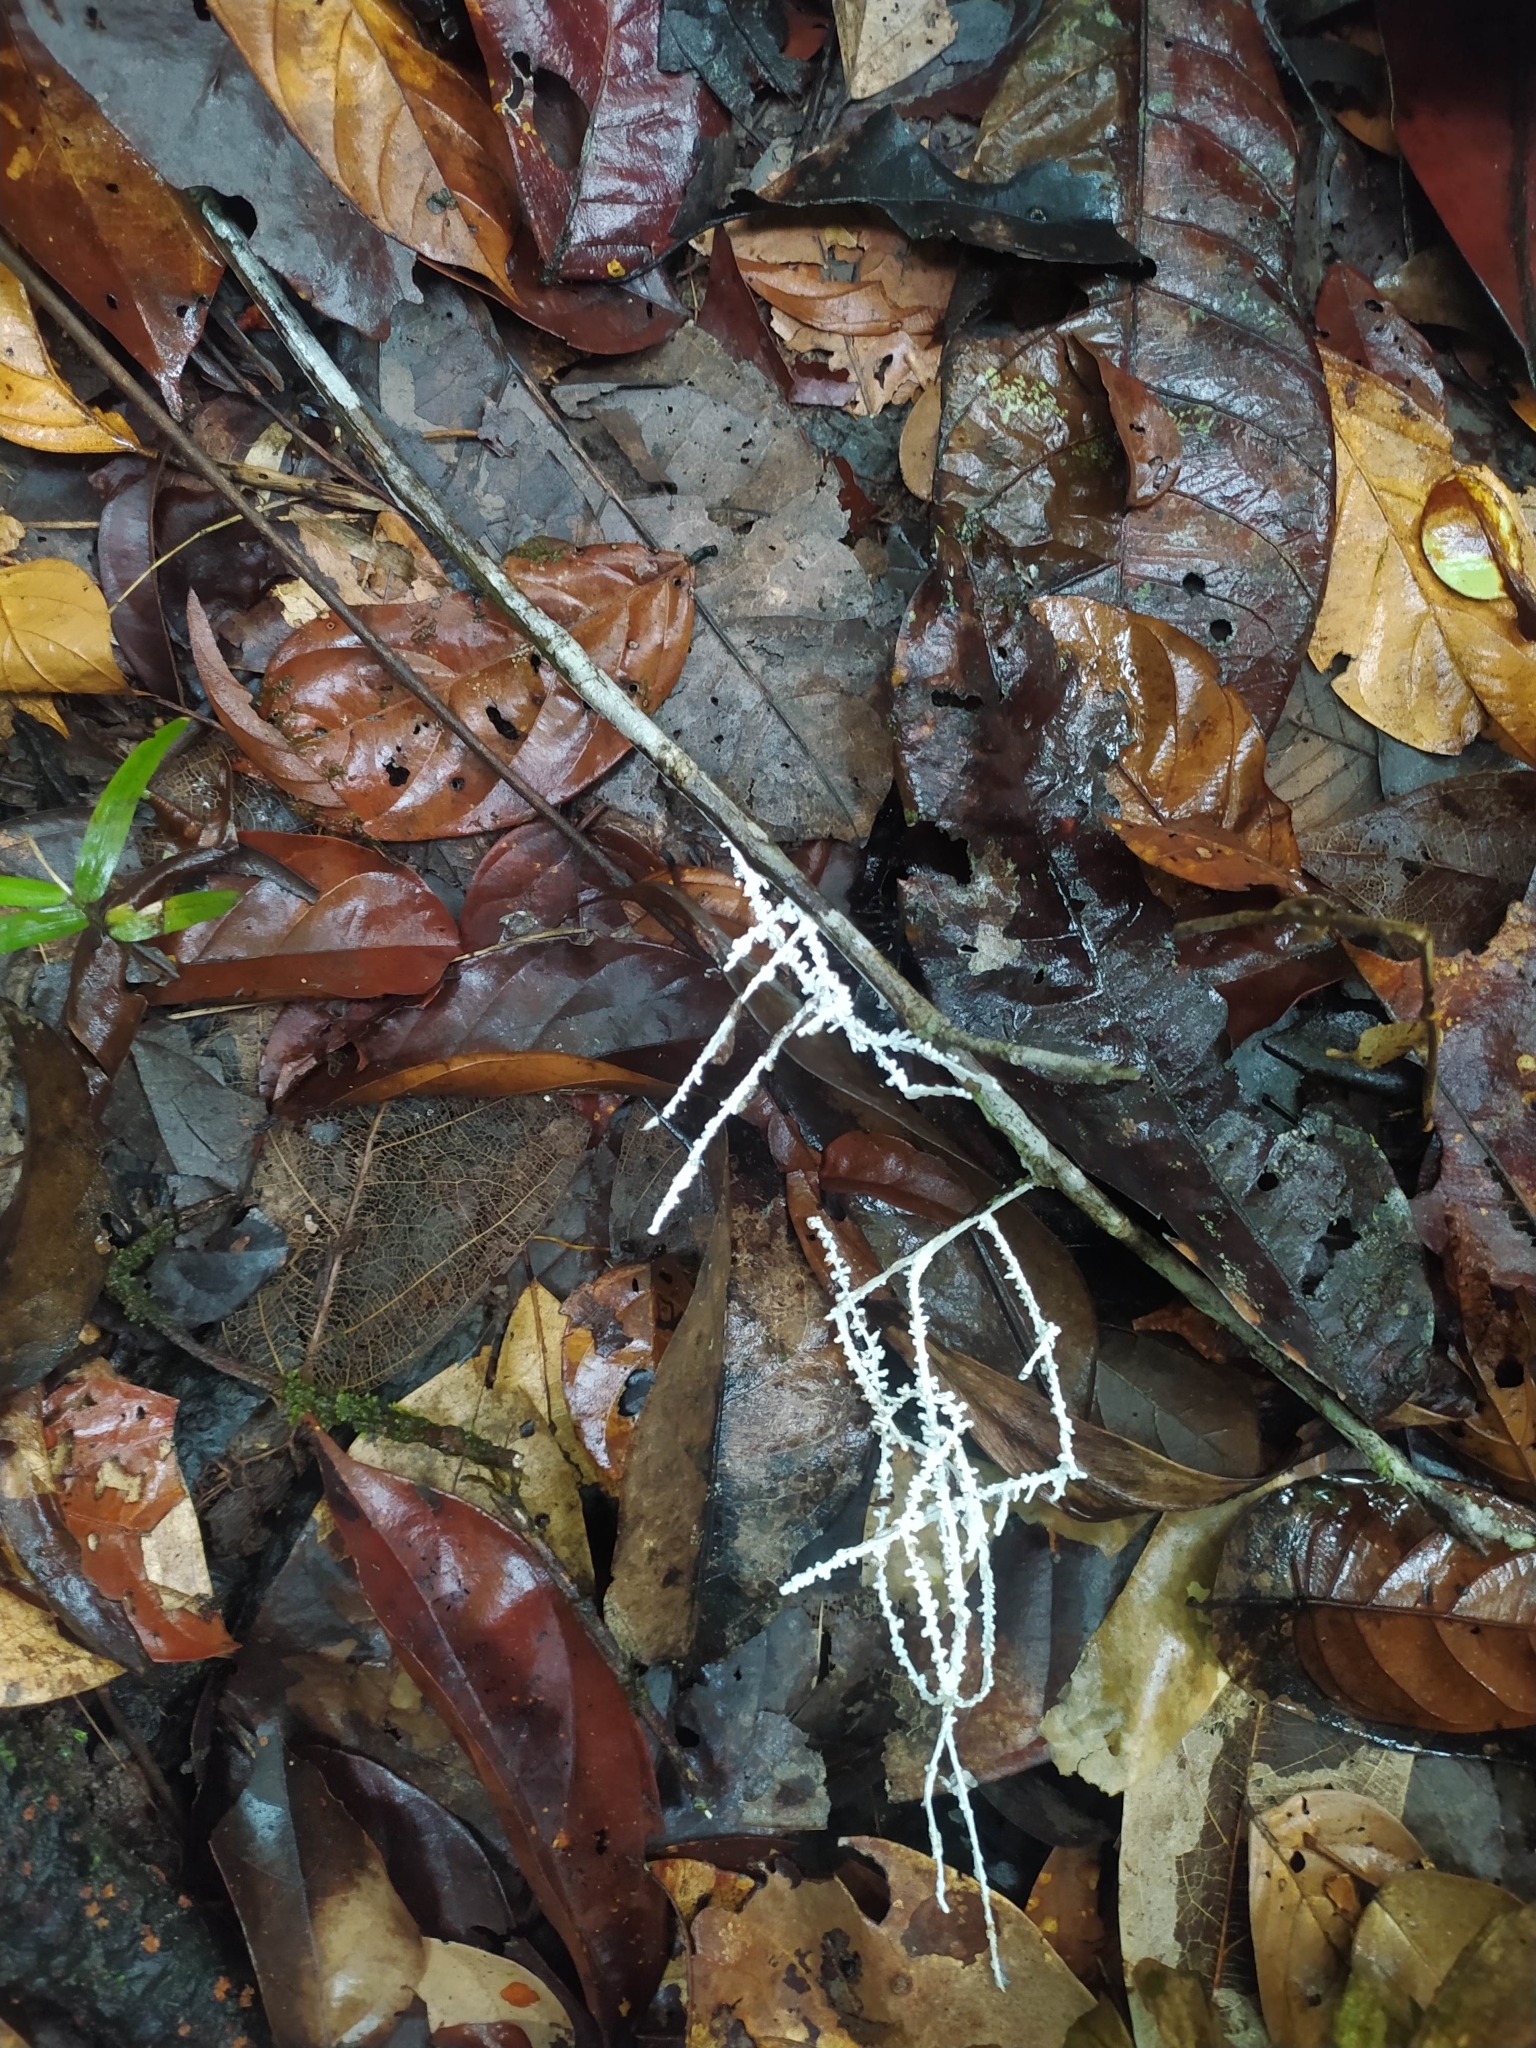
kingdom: Fungi
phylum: Basidiomycota
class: Agaricomycetes
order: Agaricales
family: Marasmiaceae
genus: Brunneocorticium
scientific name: Brunneocorticium corynecarpon
